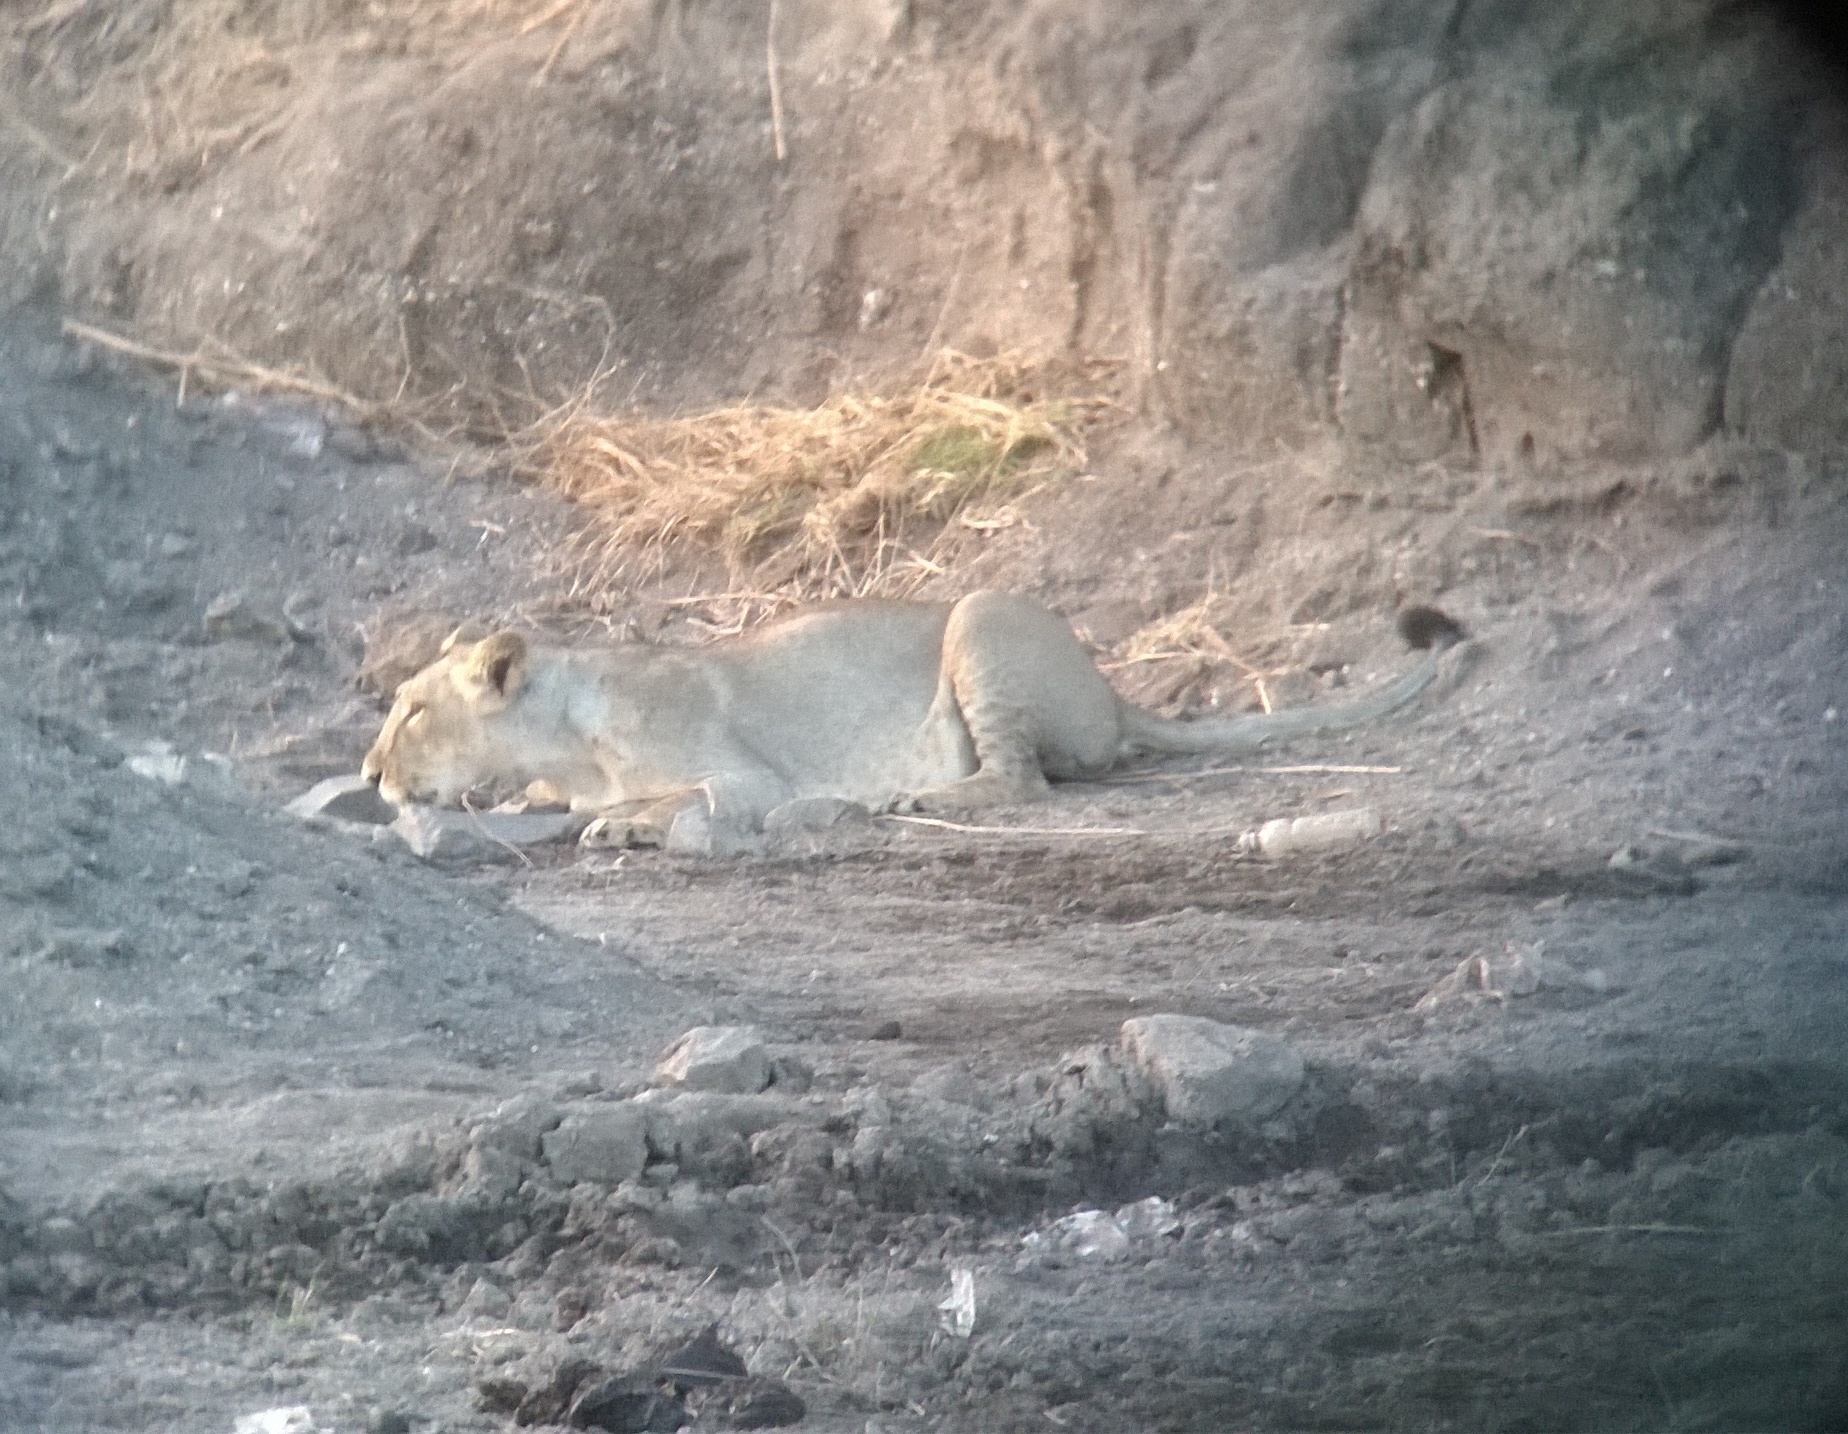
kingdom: Animalia
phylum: Chordata
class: Mammalia
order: Carnivora
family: Felidae
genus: Panthera
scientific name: Panthera leo
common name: Lion
